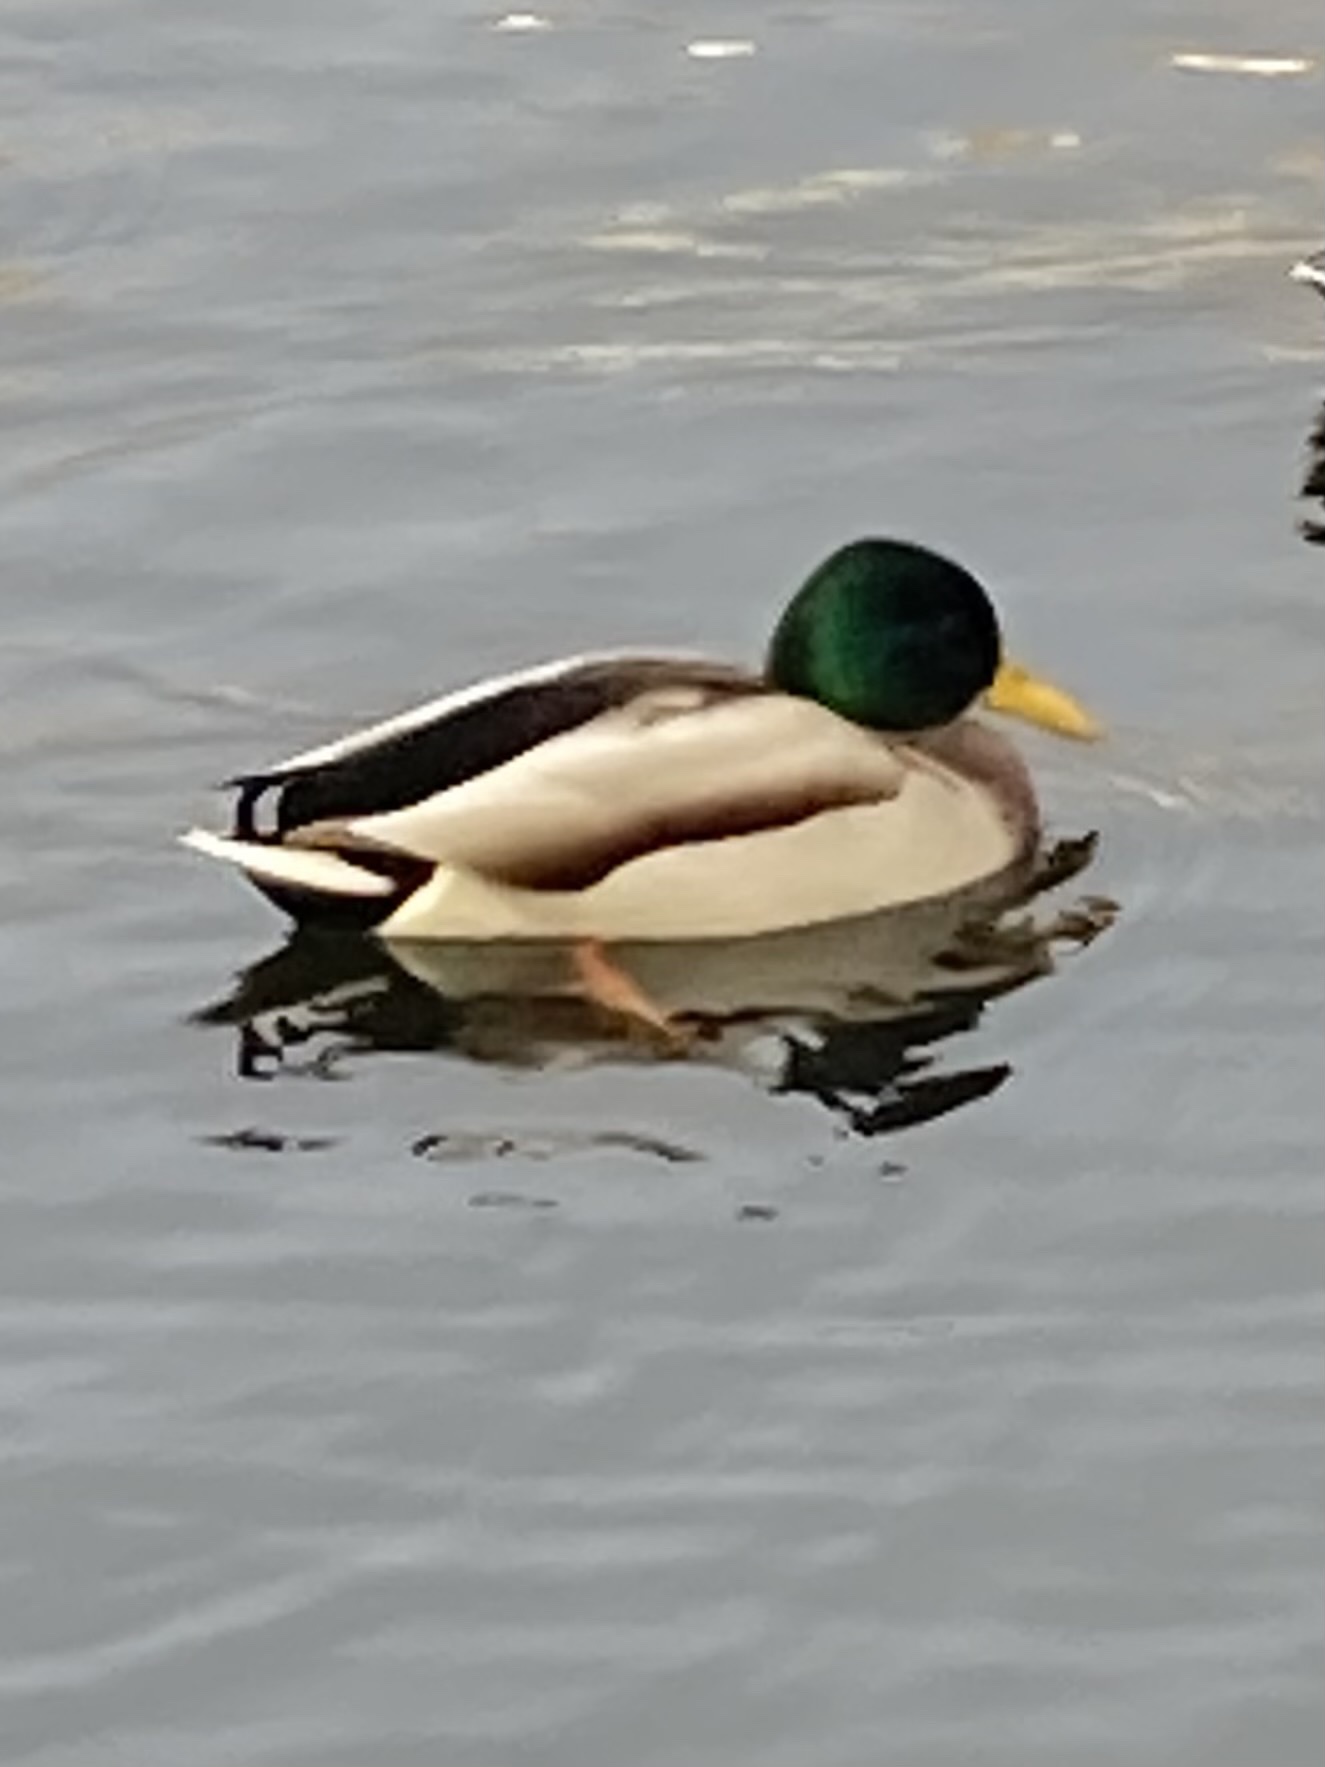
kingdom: Animalia
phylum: Chordata
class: Aves
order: Anseriformes
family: Anatidae
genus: Anas
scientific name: Anas platyrhynchos
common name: Mallard
